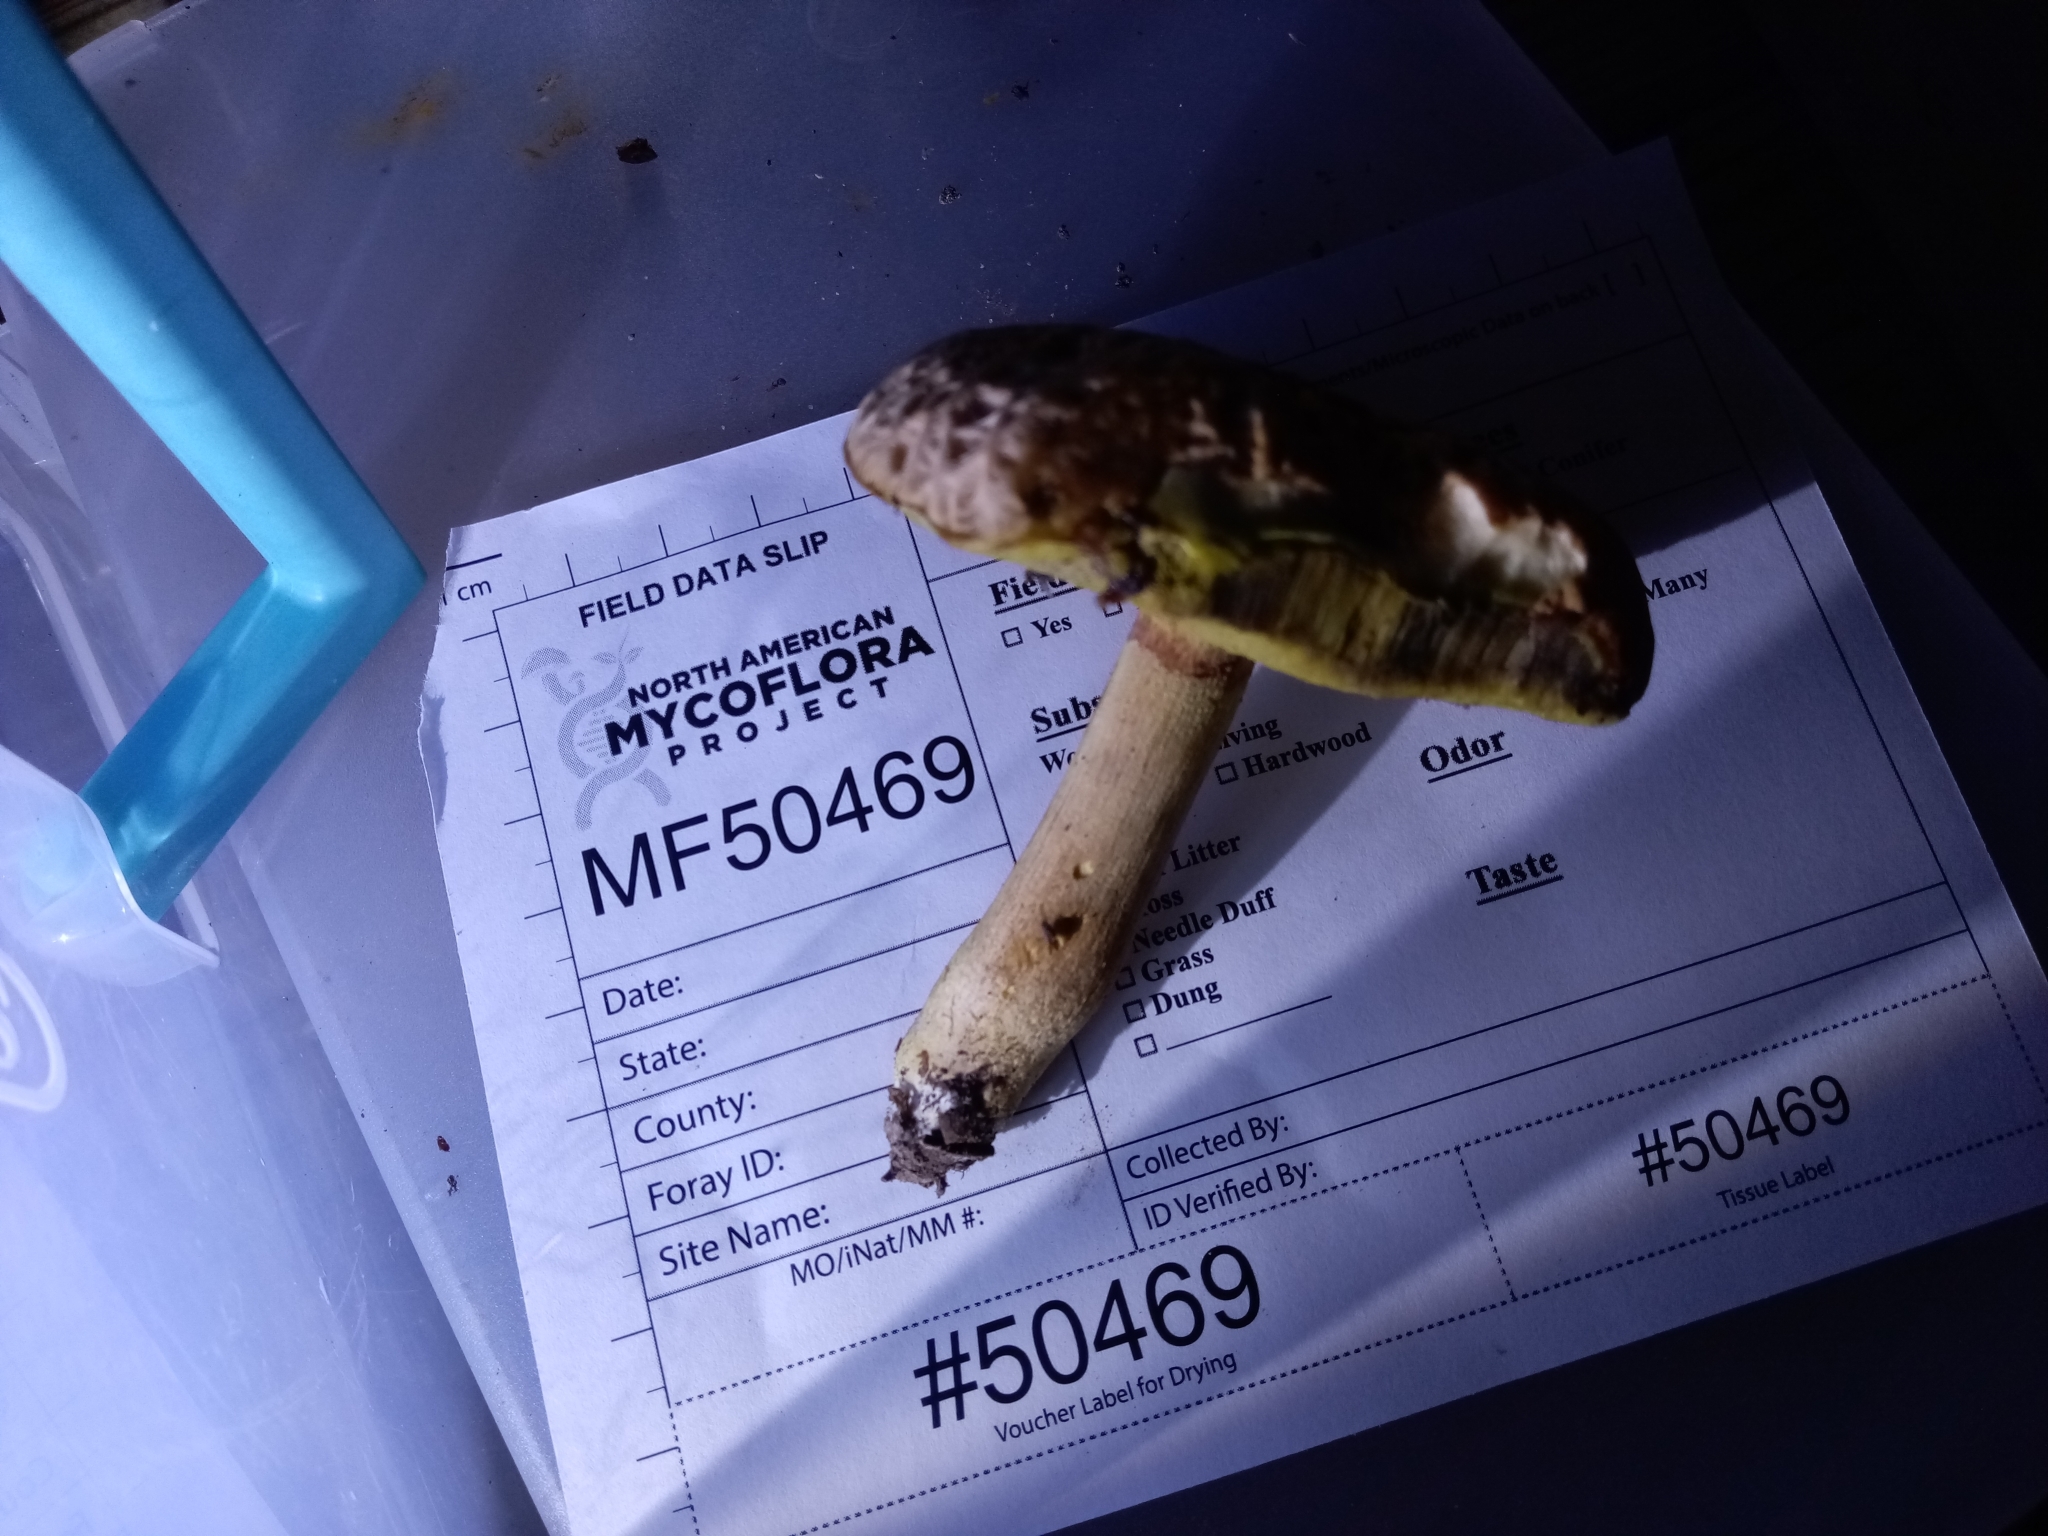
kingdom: Fungi
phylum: Basidiomycota
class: Agaricomycetes
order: Boletales
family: Boletaceae
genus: Hemileccinum
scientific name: Hemileccinum hortonii
